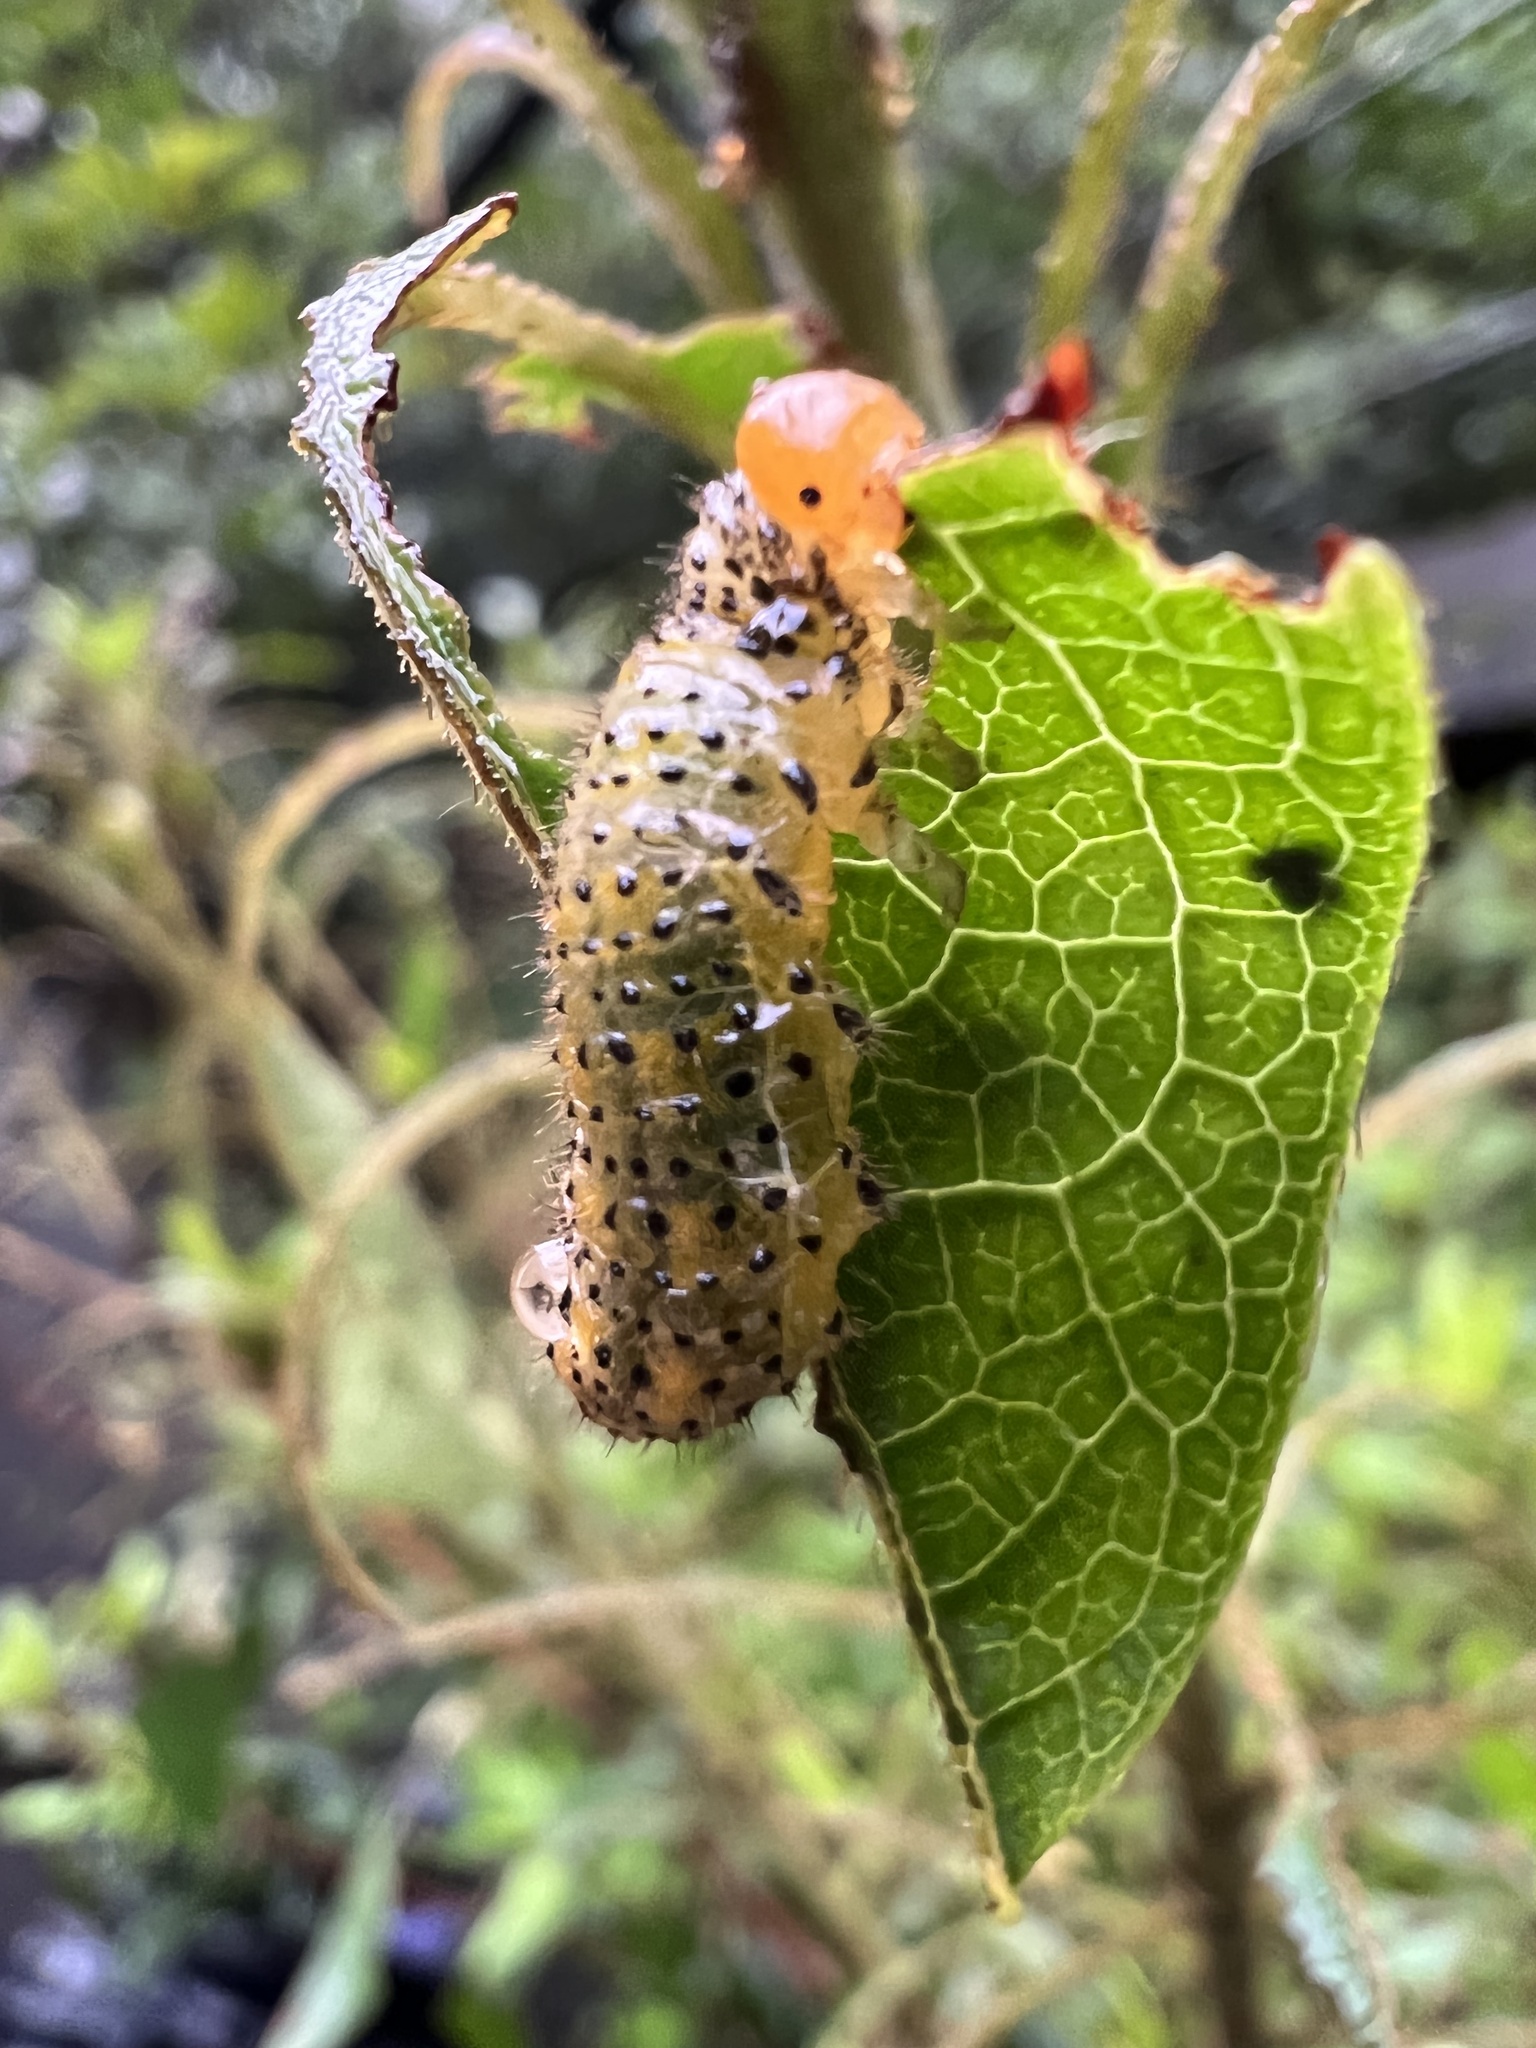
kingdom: Animalia
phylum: Arthropoda
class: Insecta
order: Hymenoptera
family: Argidae
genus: Arge
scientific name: Arge similis
